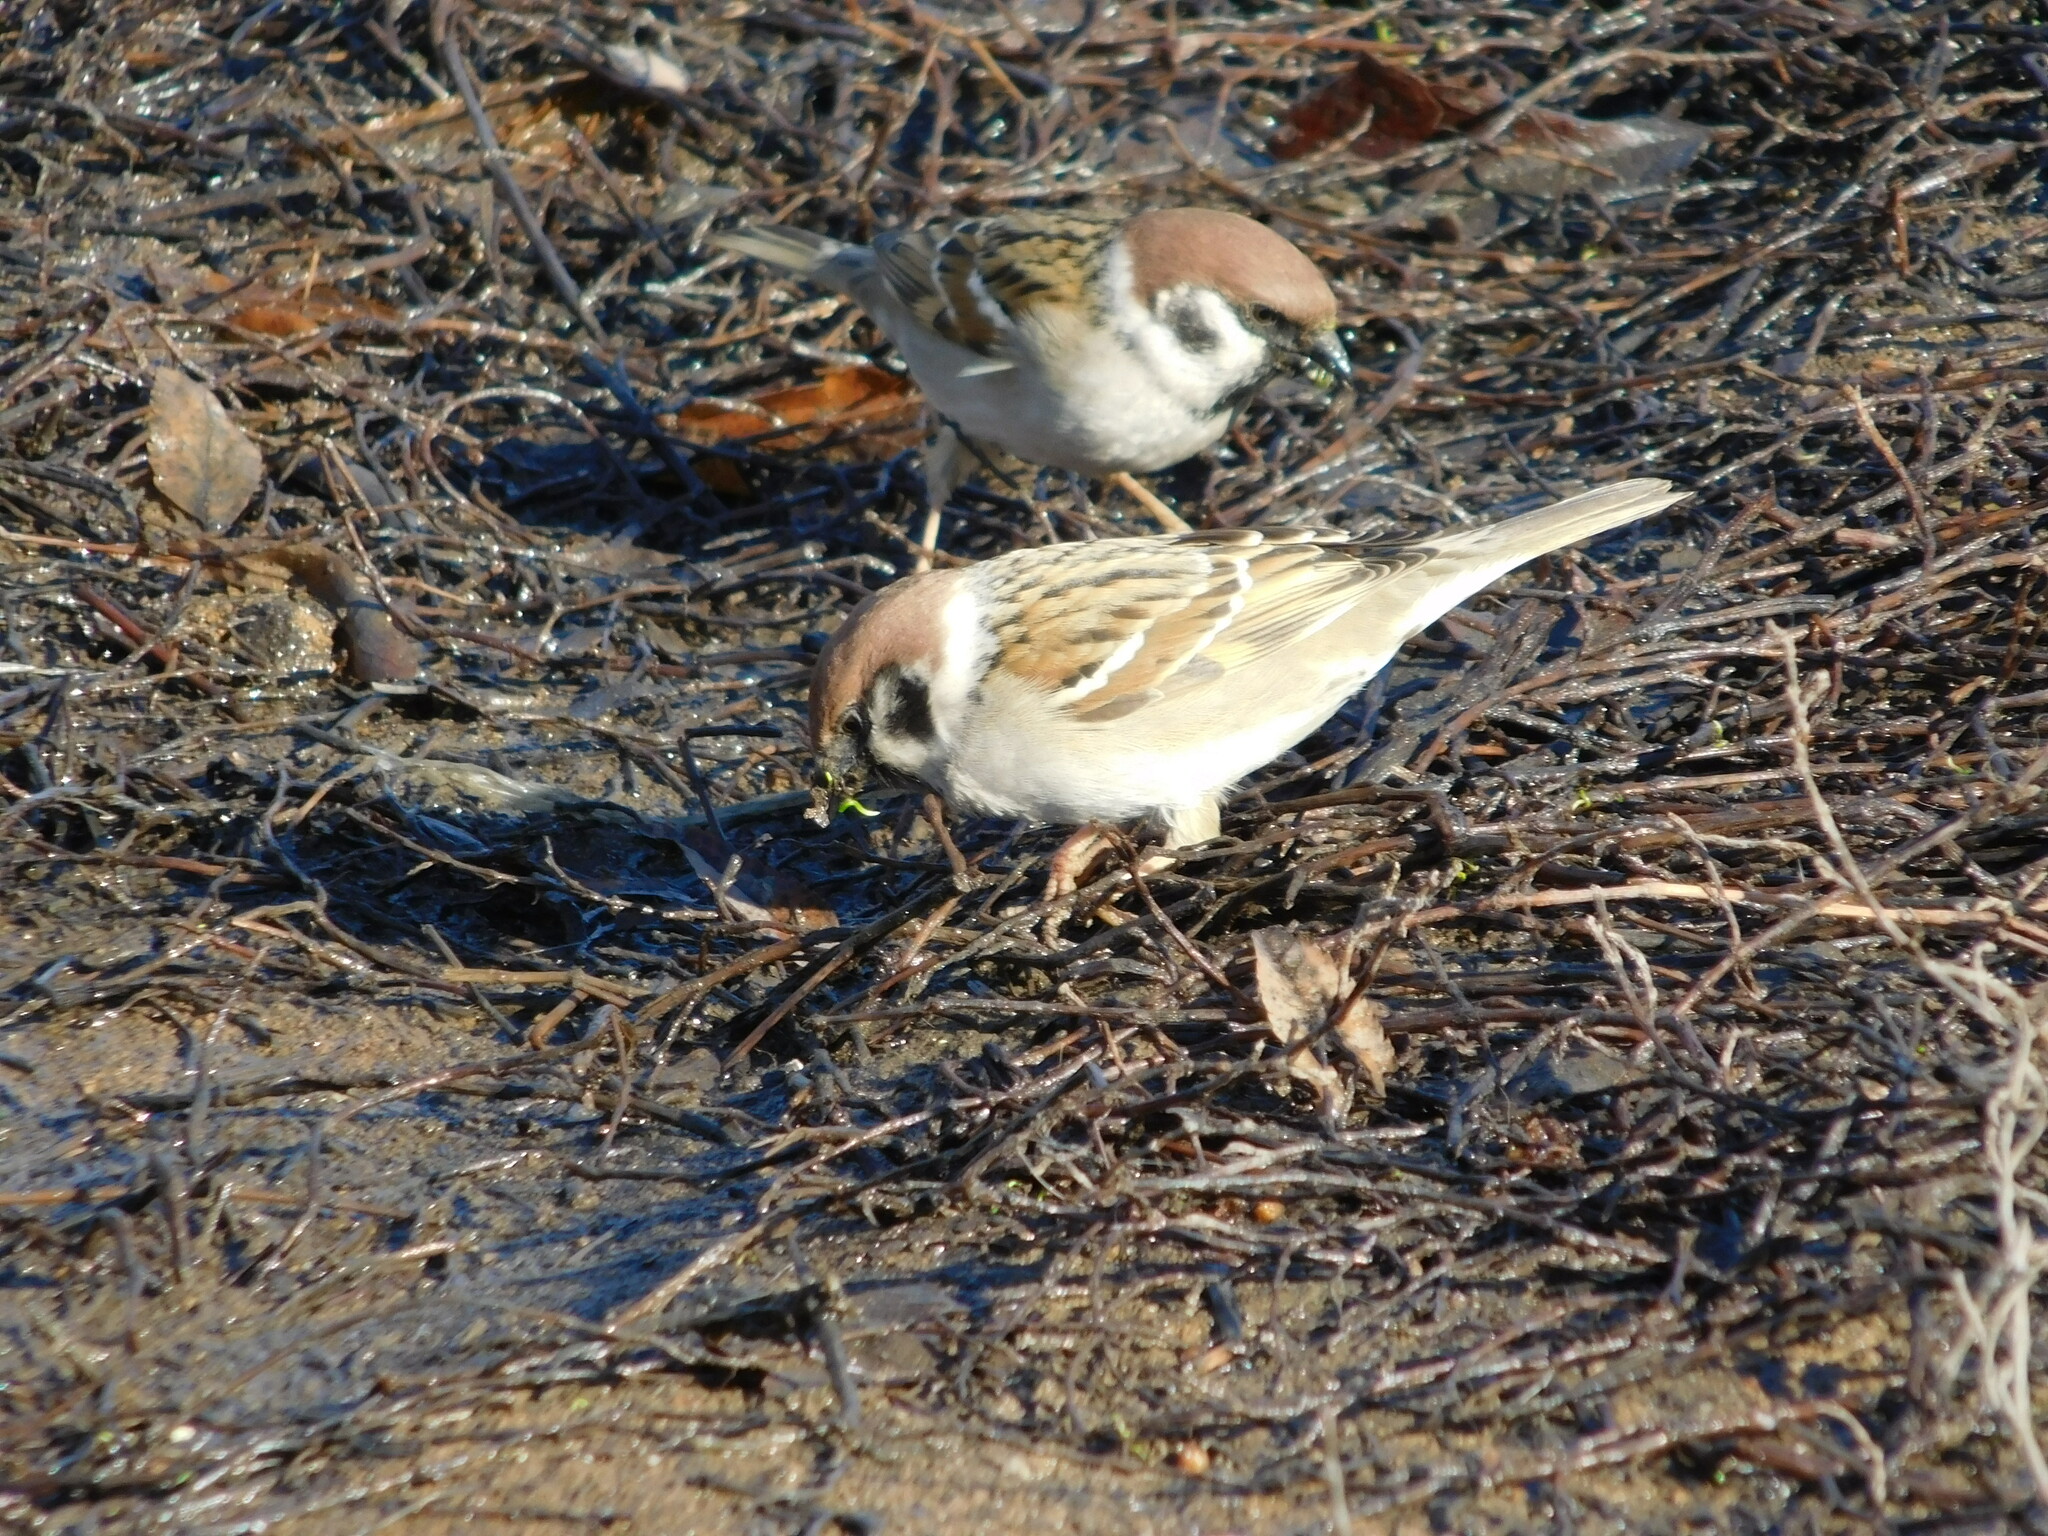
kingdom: Animalia
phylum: Chordata
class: Aves
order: Passeriformes
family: Passeridae
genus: Passer
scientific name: Passer montanus
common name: Eurasian tree sparrow
